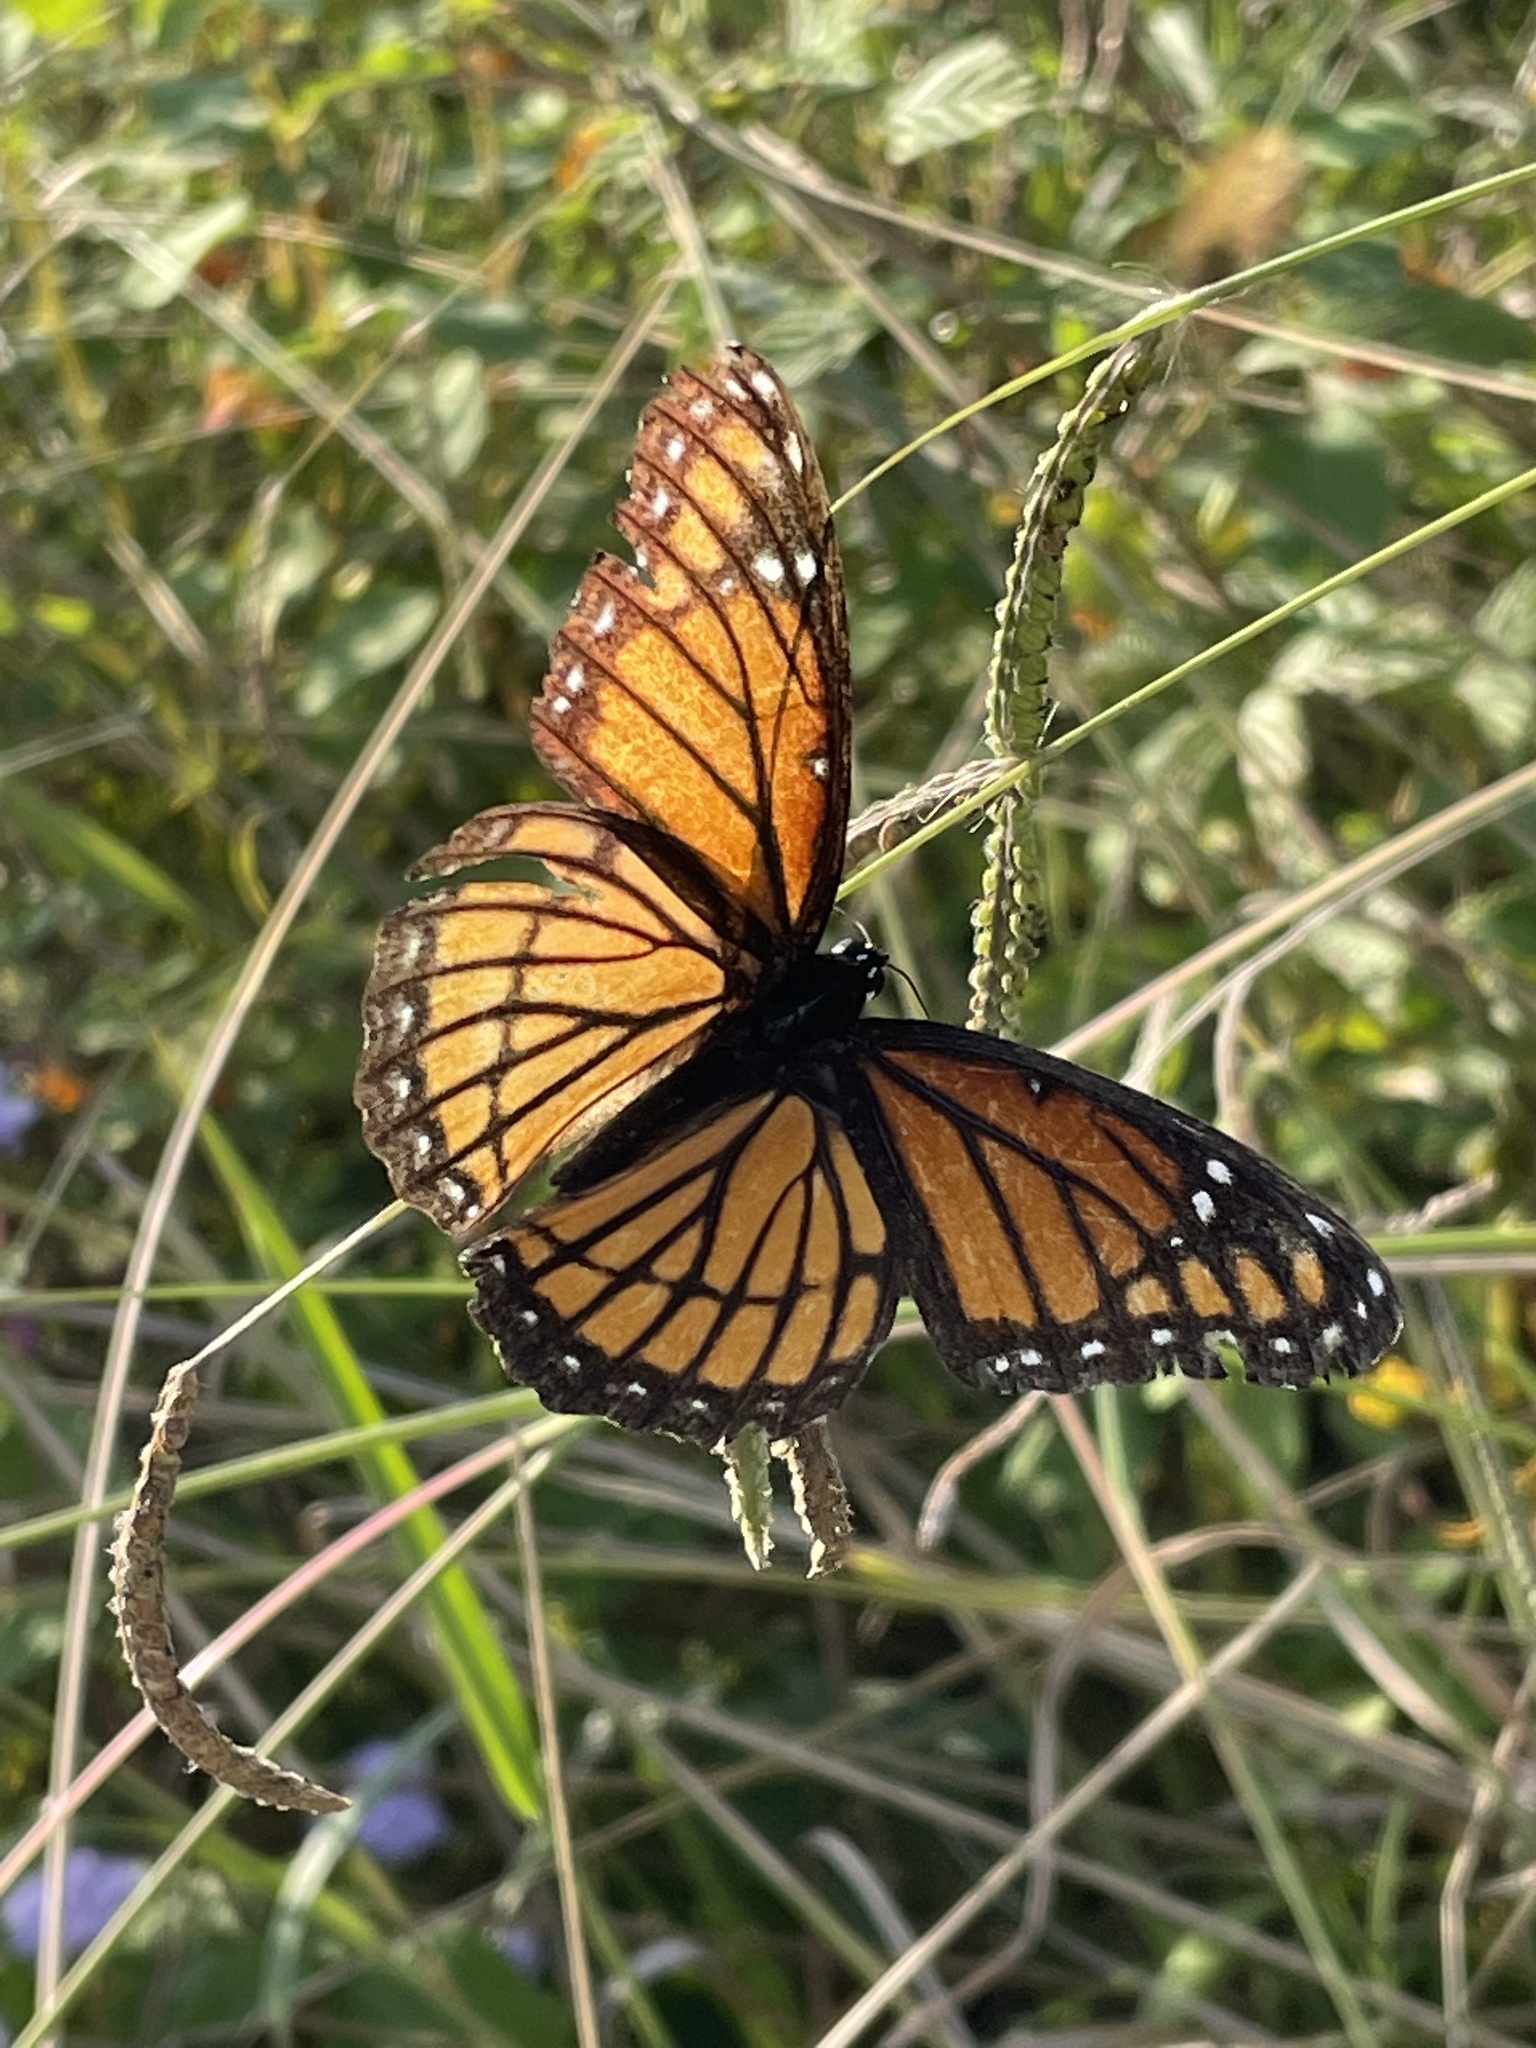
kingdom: Animalia
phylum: Arthropoda
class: Insecta
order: Lepidoptera
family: Nymphalidae
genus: Limenitis
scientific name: Limenitis archippus
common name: Viceroy
